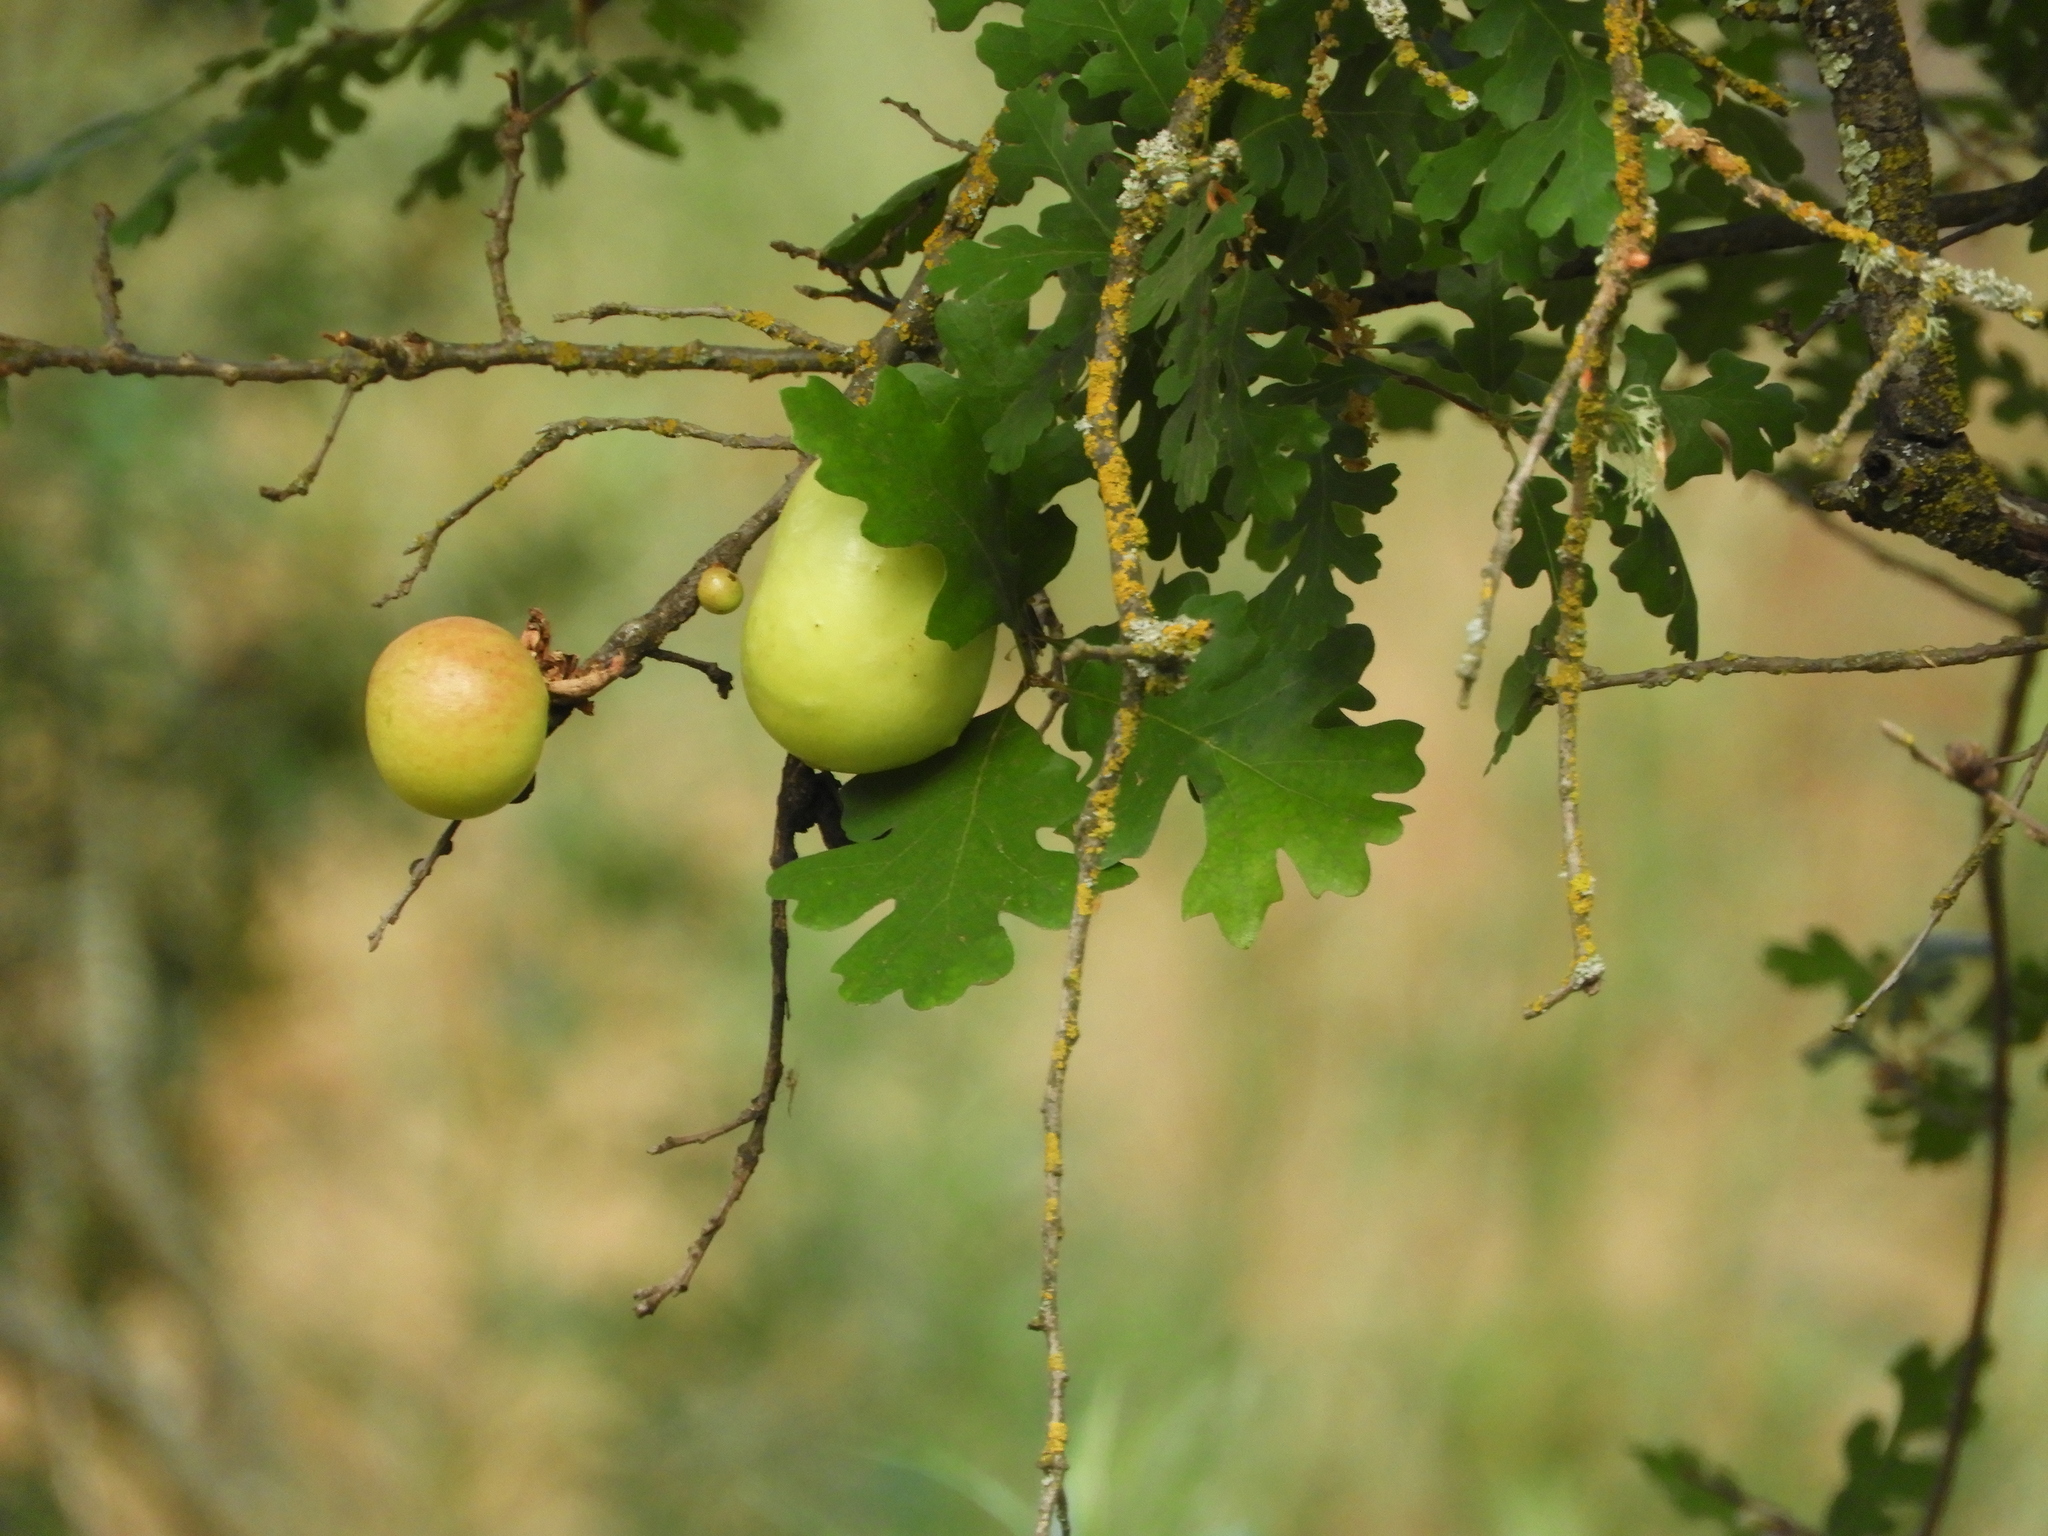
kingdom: Animalia
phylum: Arthropoda
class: Insecta
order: Hymenoptera
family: Cynipidae
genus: Andricus
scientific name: Andricus quercuscalifornicus
